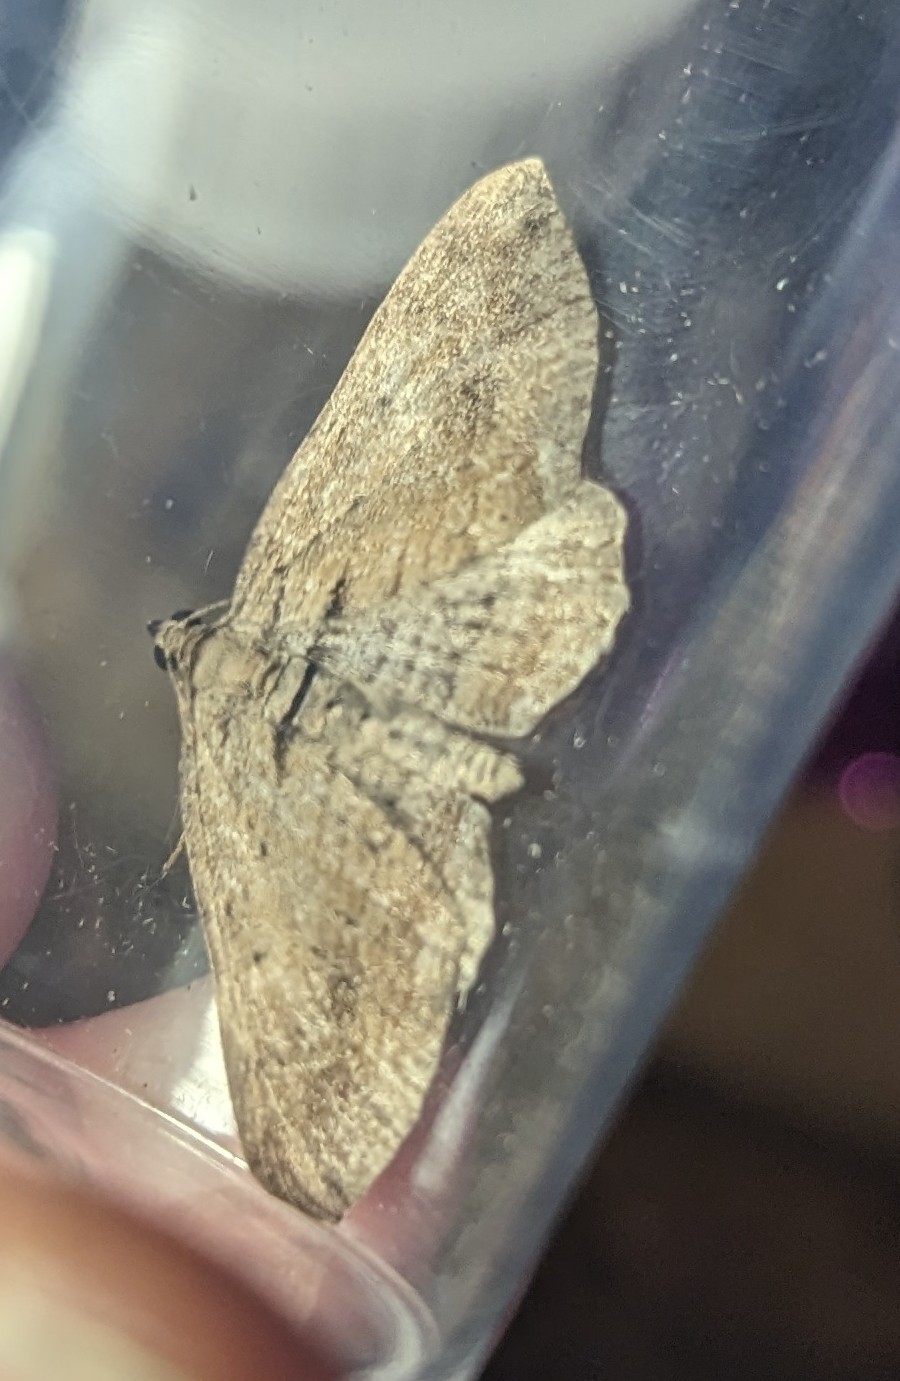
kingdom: Animalia
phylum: Arthropoda
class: Insecta
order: Lepidoptera
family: Geometridae
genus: Horisme
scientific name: Horisme tersata
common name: Fern
